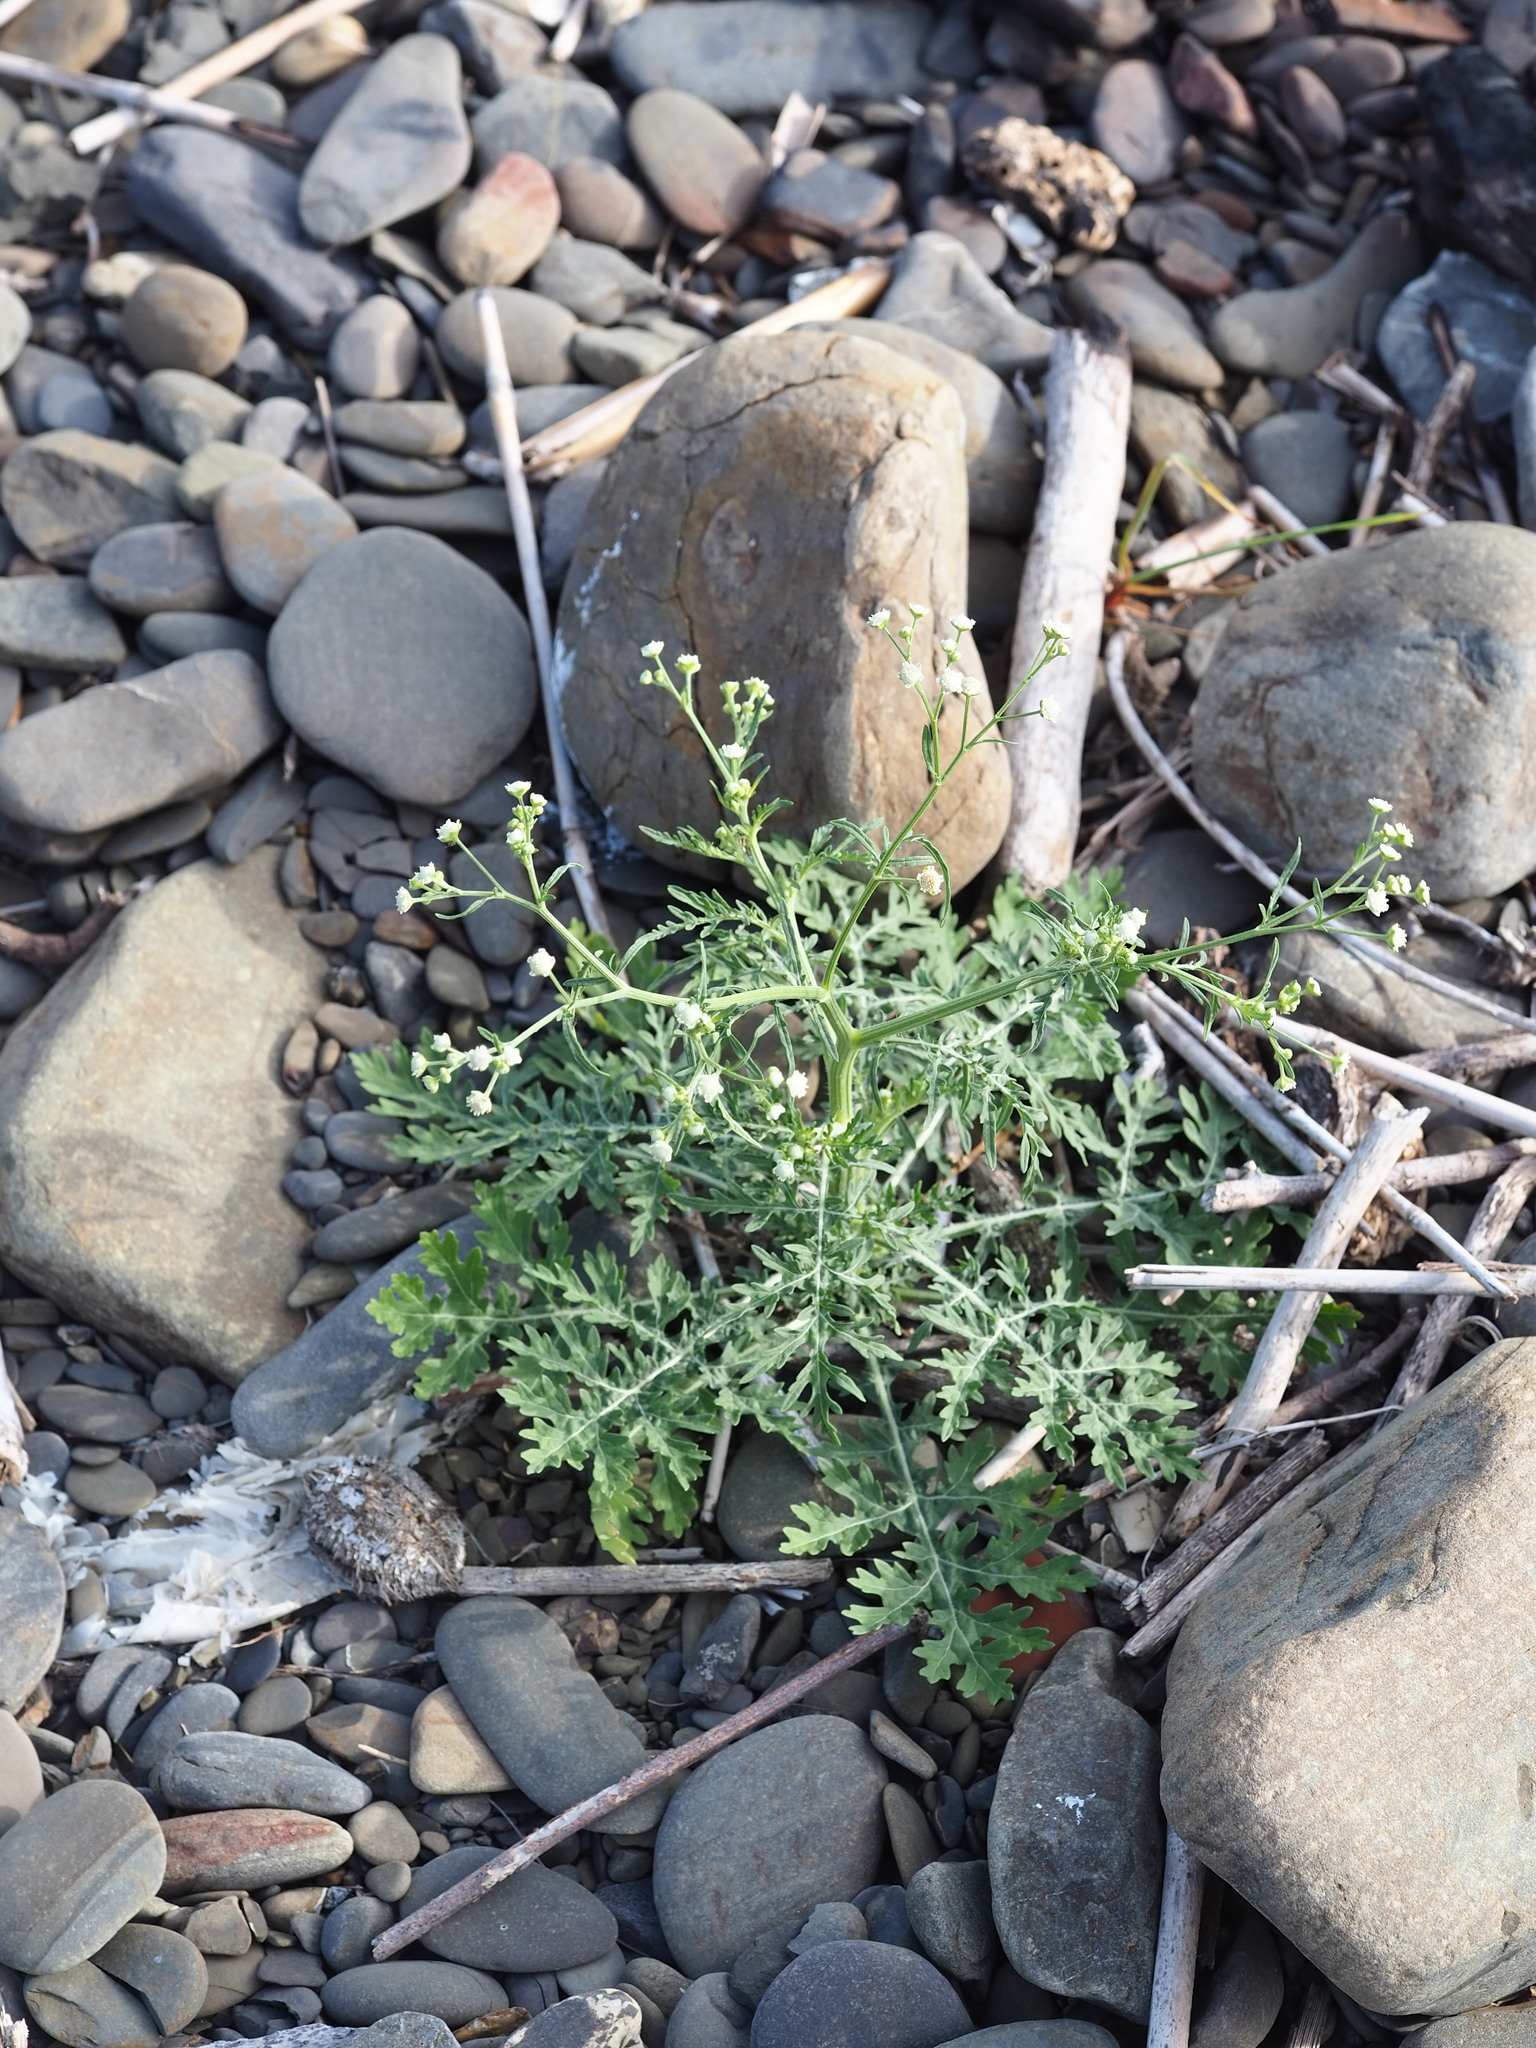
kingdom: Plantae
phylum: Tracheophyta
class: Magnoliopsida
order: Asterales
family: Asteraceae
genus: Parthenium
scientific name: Parthenium hysterophorus
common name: Santa maria feverfew
